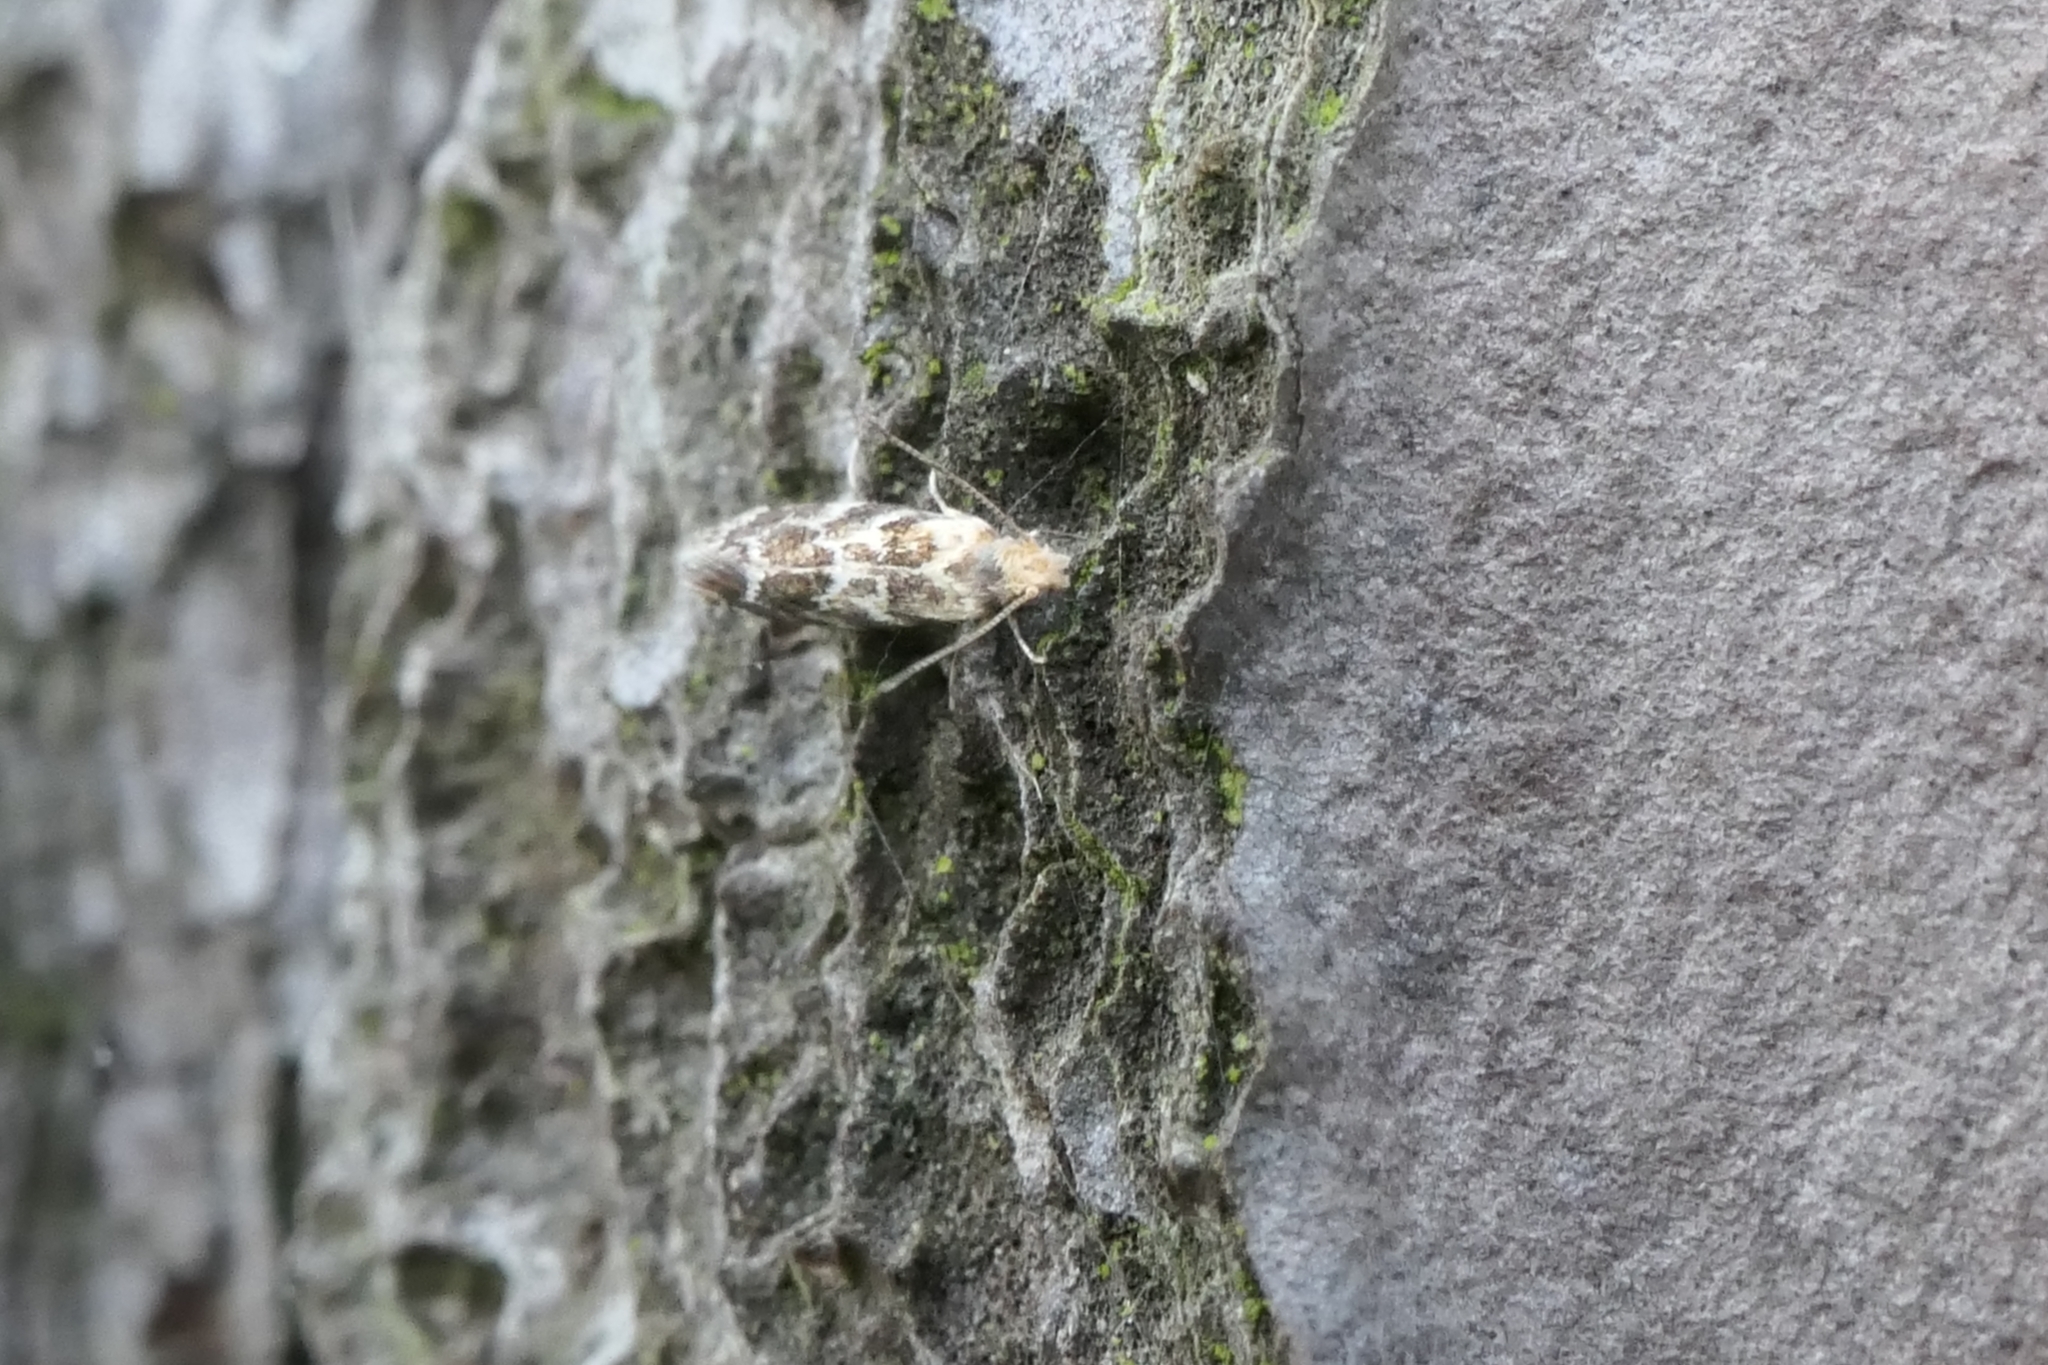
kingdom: Animalia
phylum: Arthropoda
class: Insecta
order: Lepidoptera
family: Dryadaulidae
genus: Dryadaula
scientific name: Dryadaula pactolia
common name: Cellar clothes
